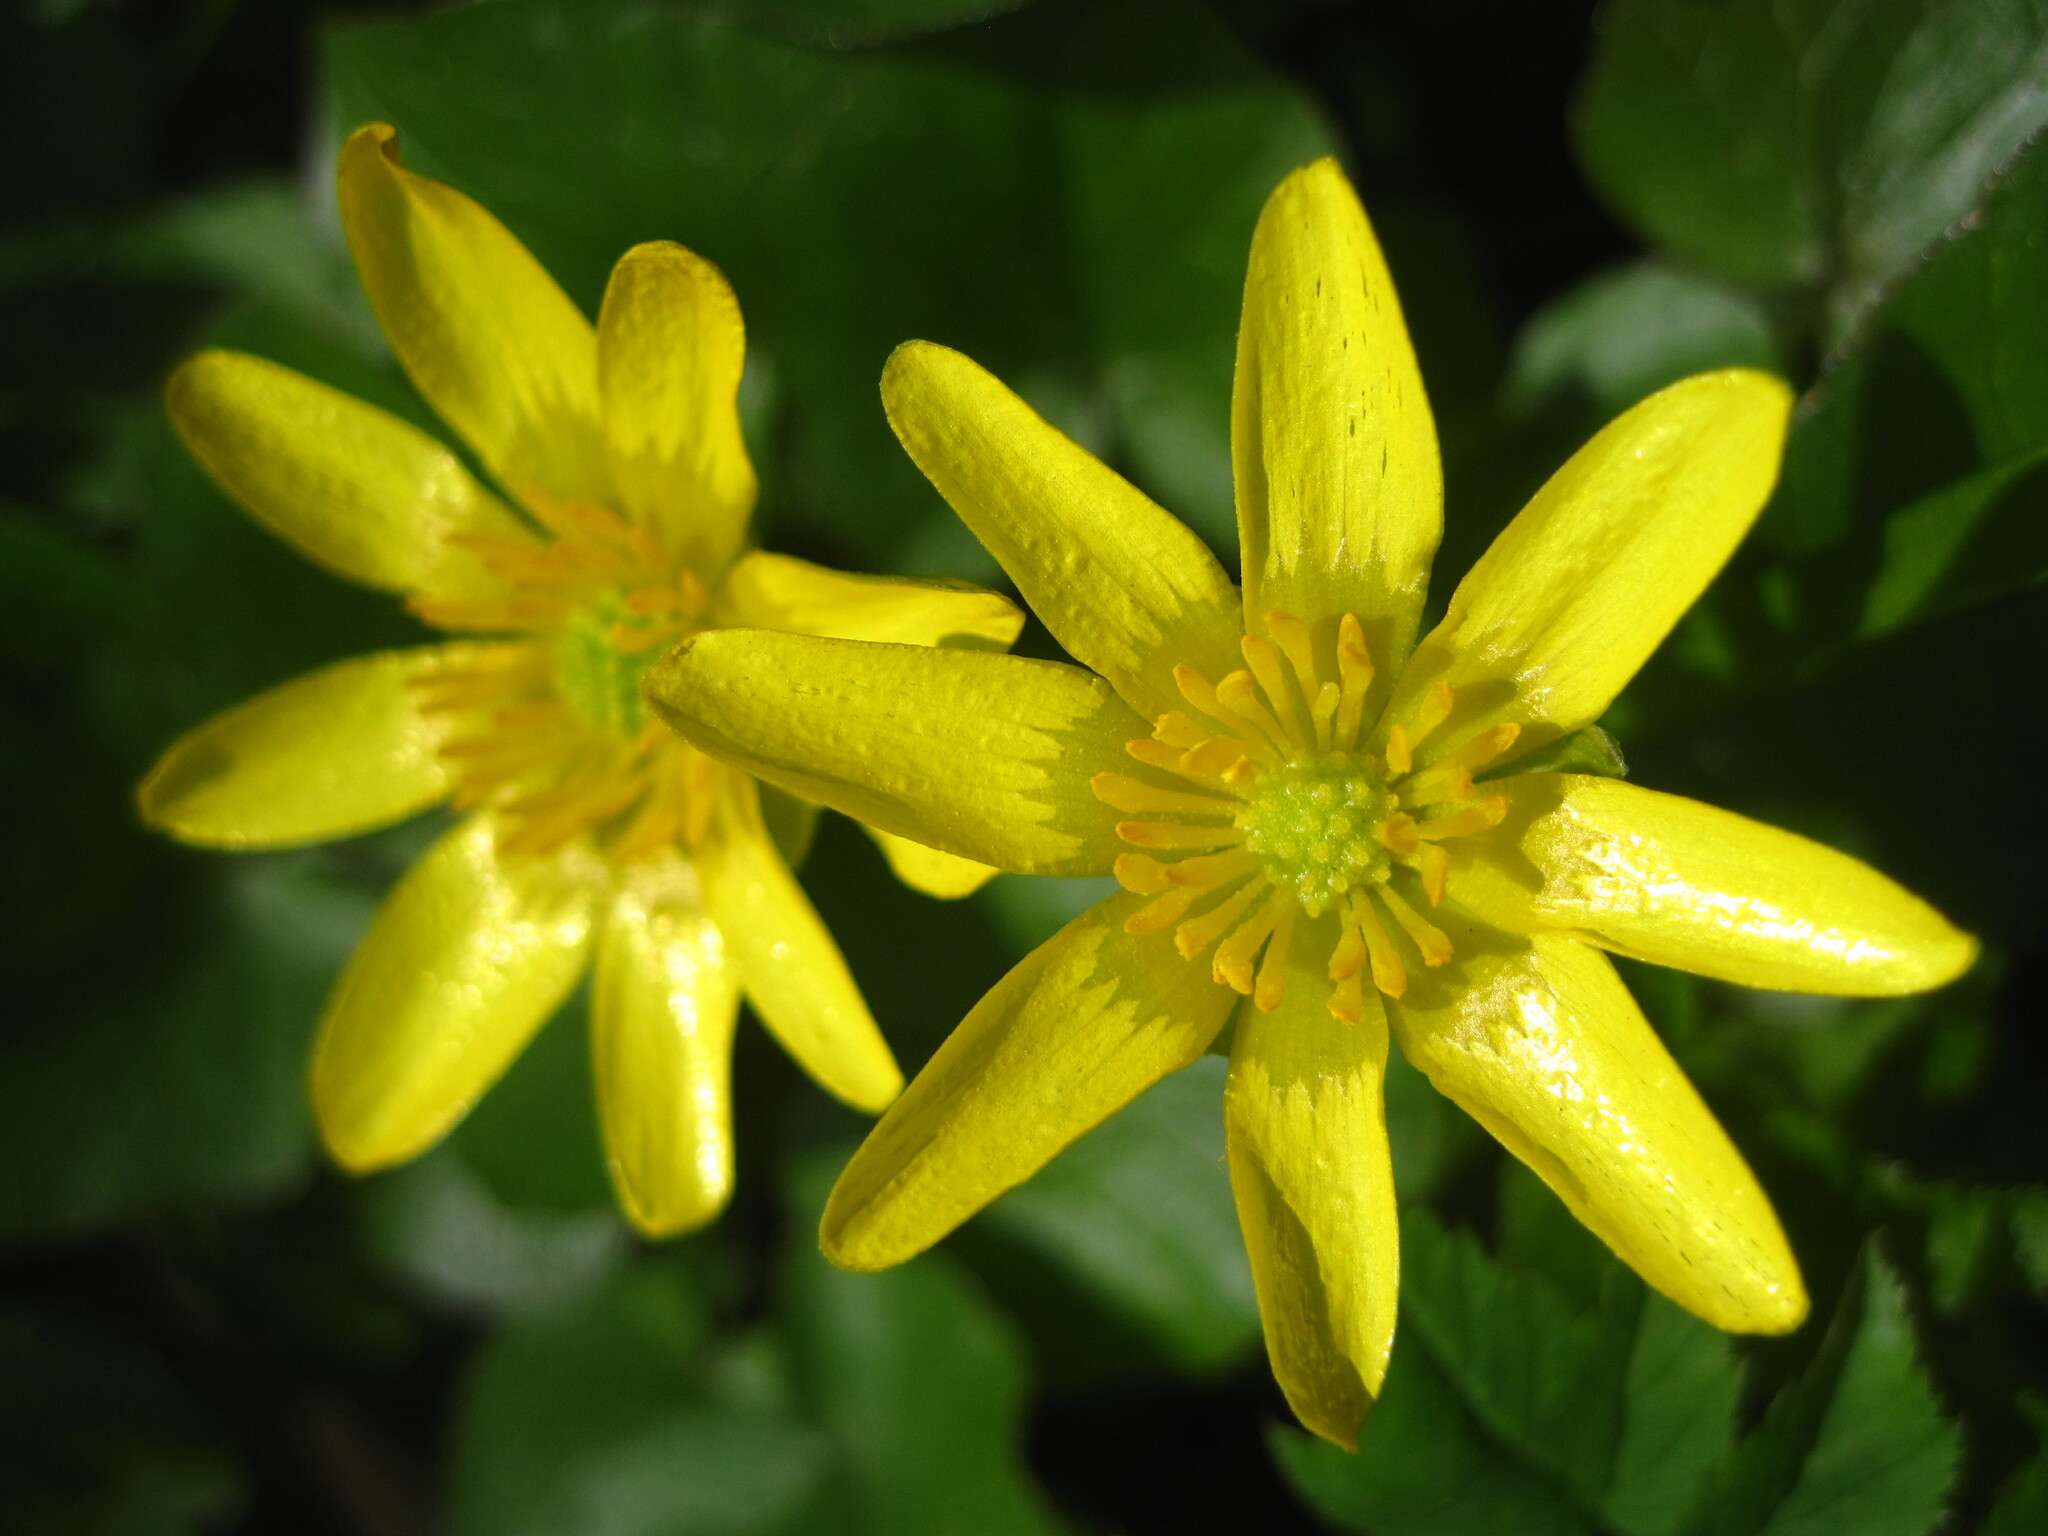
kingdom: Plantae
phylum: Tracheophyta
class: Magnoliopsida
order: Ranunculales
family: Ranunculaceae
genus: Ficaria
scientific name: Ficaria verna
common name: Lesser celandine
